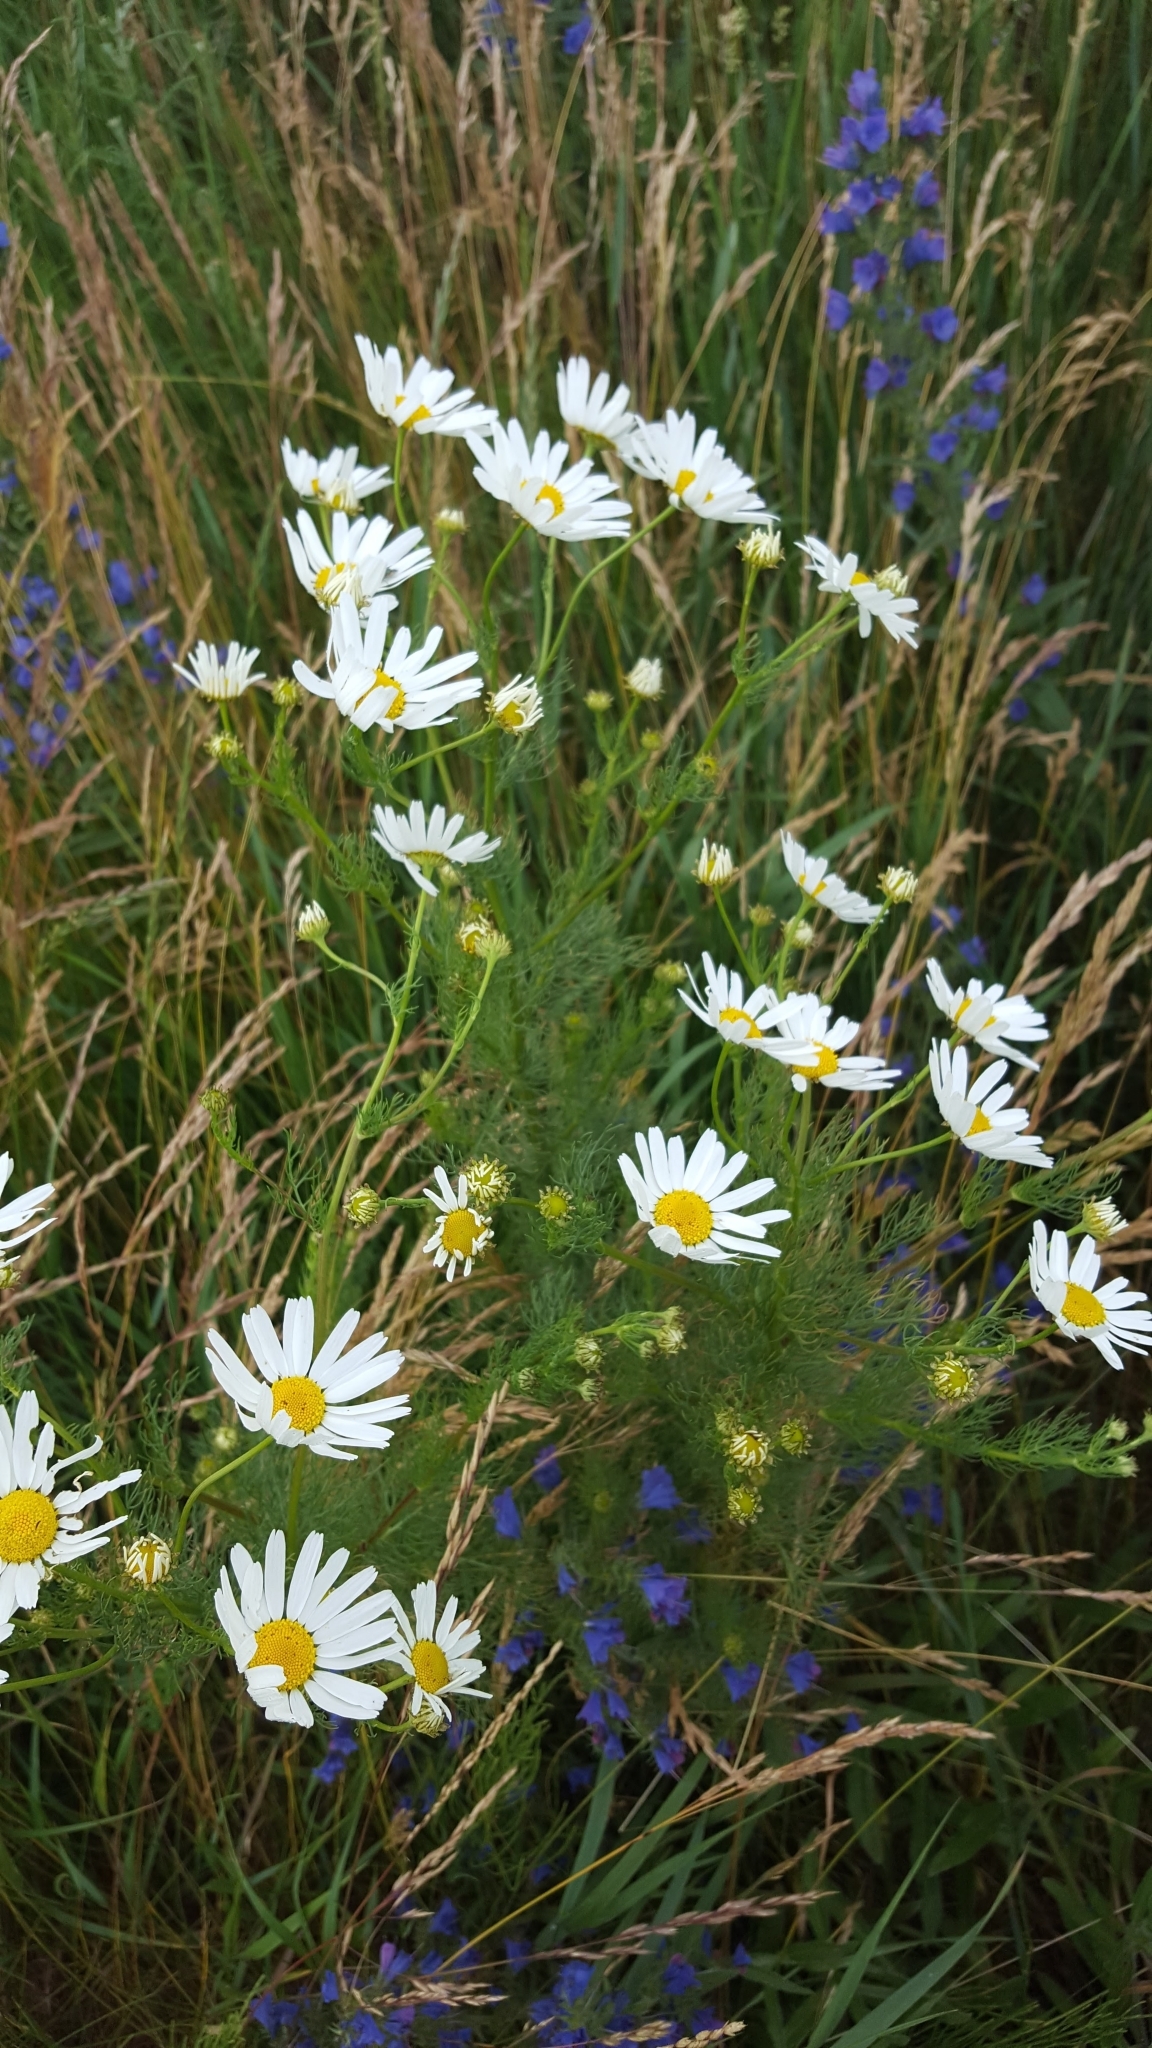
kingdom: Plantae
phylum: Tracheophyta
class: Magnoliopsida
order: Asterales
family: Asteraceae
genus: Tripleurospermum
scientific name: Tripleurospermum inodorum
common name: Scentless mayweed
